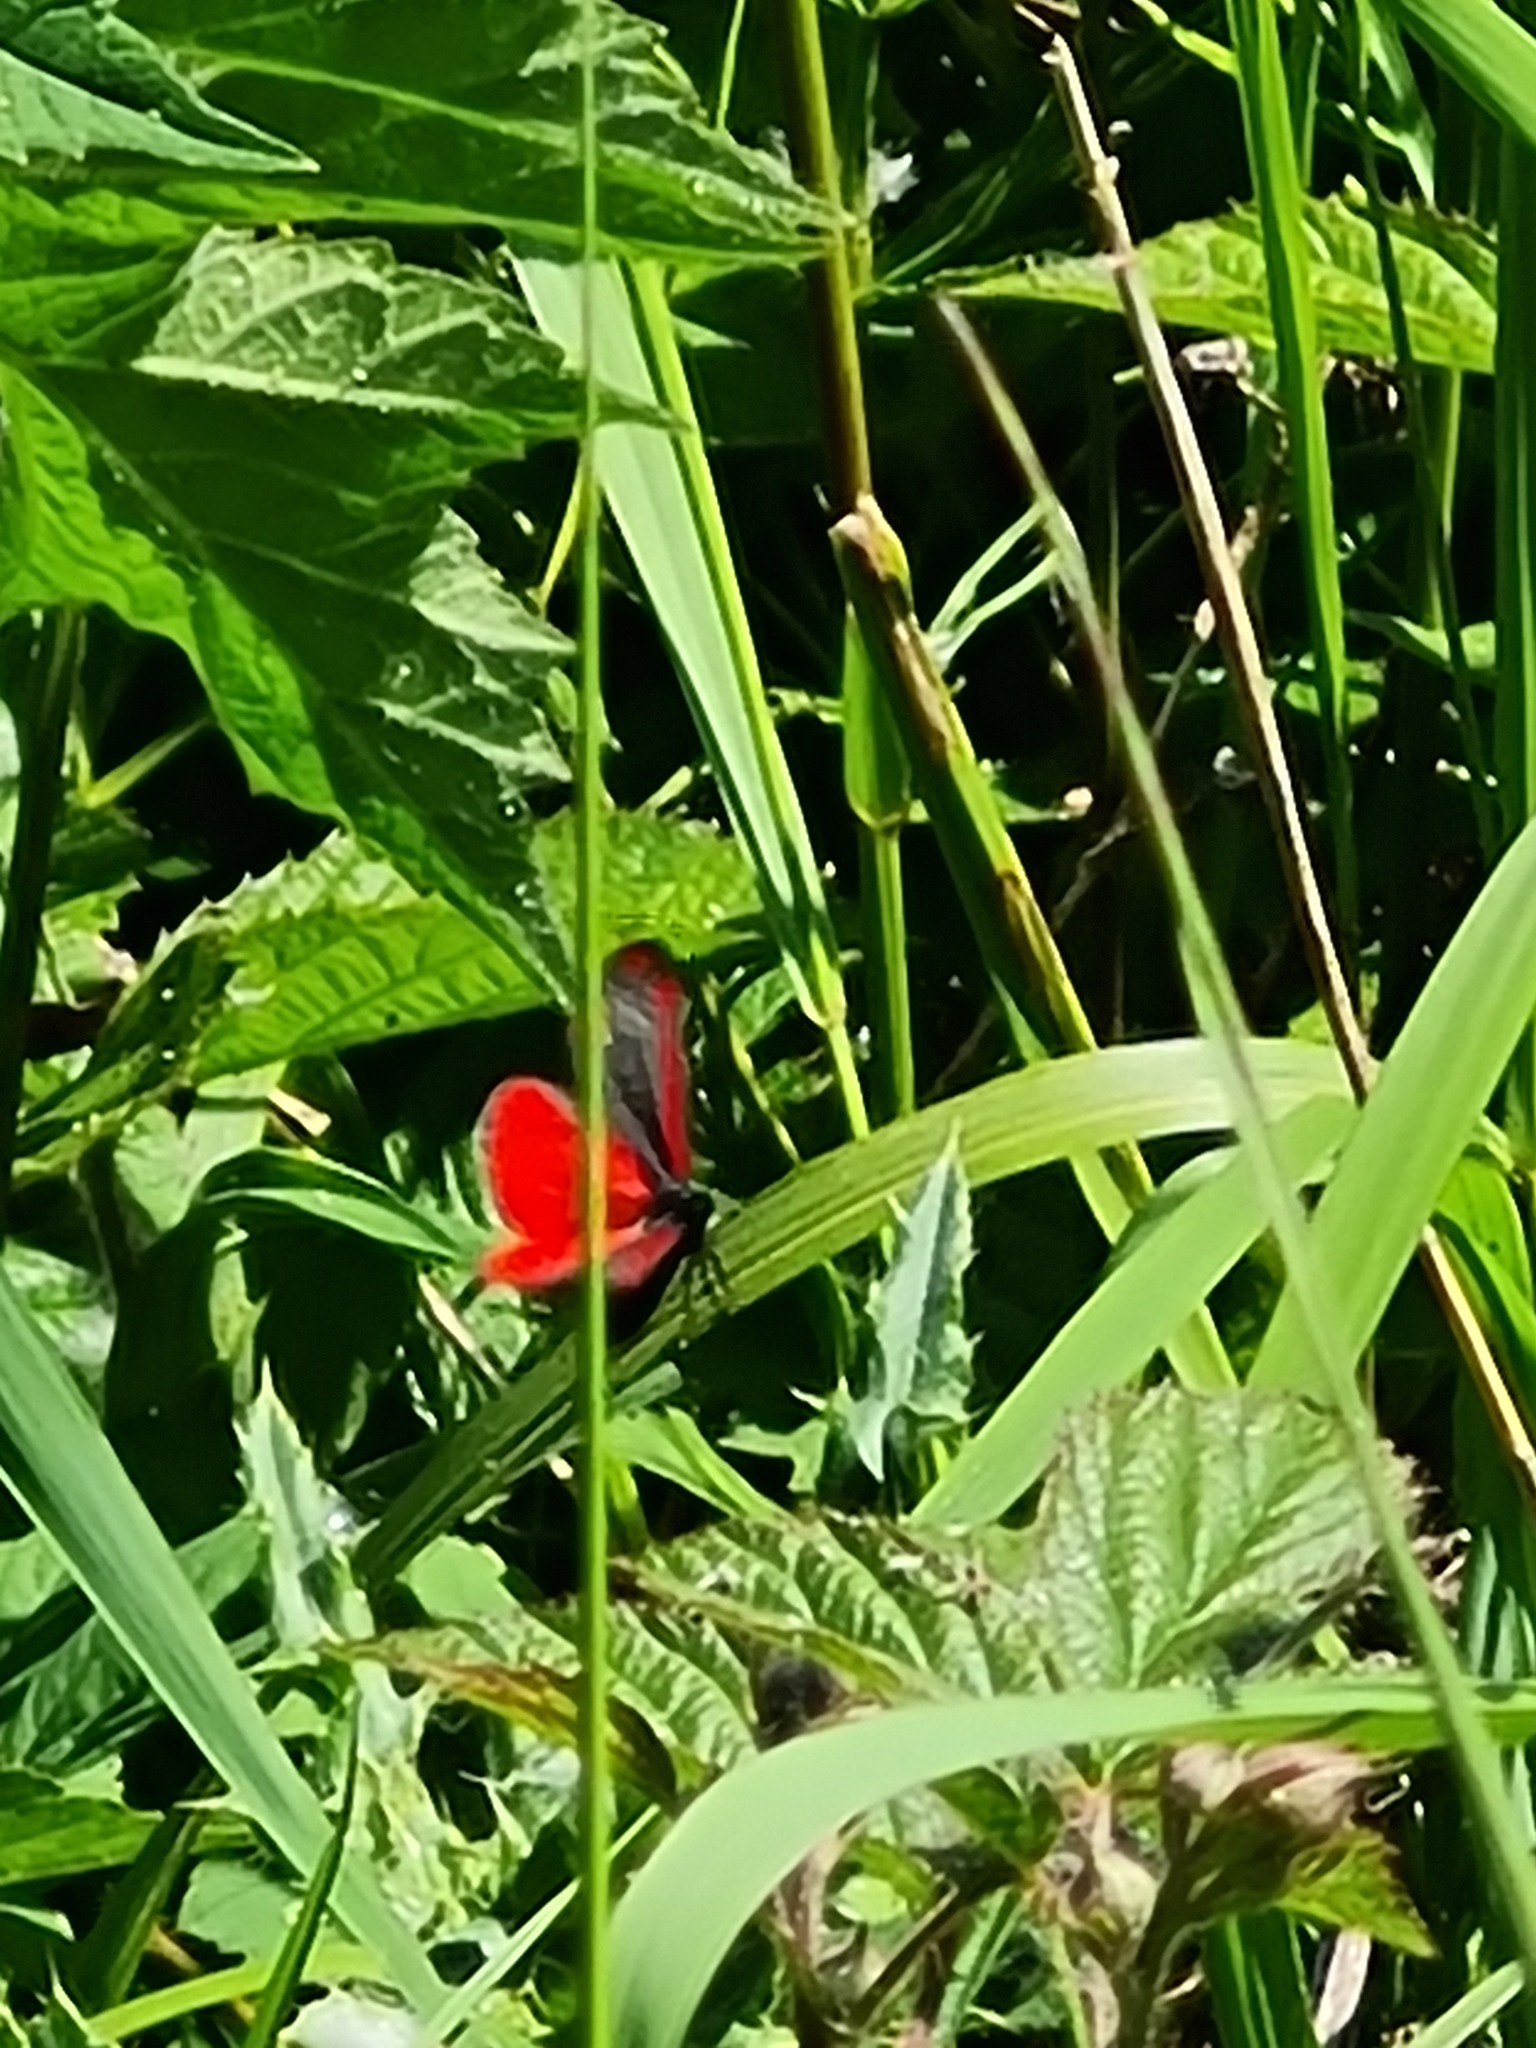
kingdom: Animalia
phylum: Arthropoda
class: Insecta
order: Lepidoptera
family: Erebidae
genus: Tyria
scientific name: Tyria jacobaeae
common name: Cinnabar
